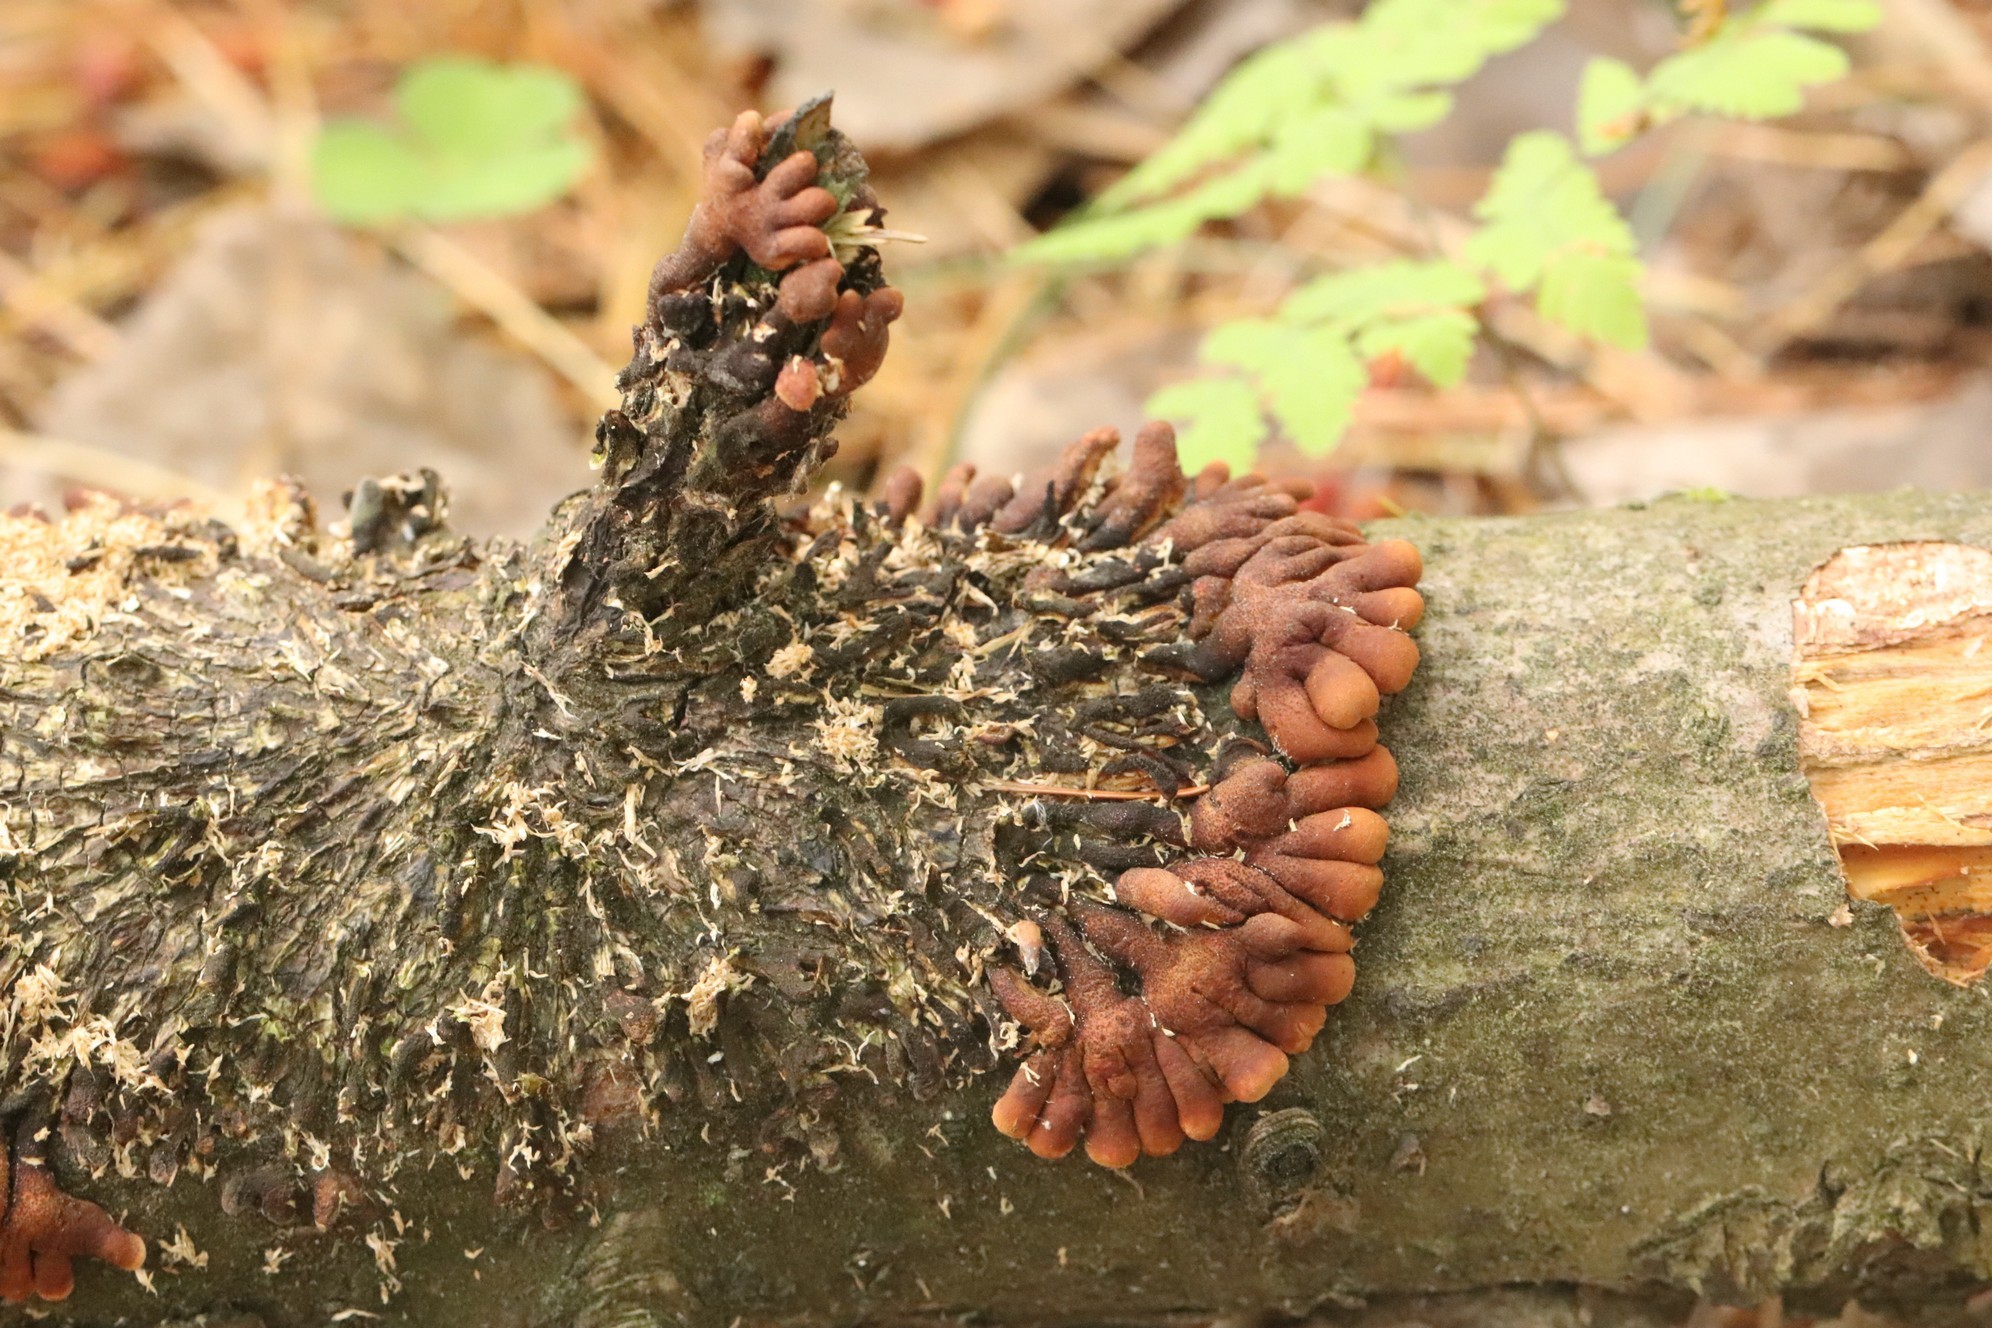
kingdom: Fungi
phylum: Ascomycota
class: Sordariomycetes
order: Hypocreales
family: Hypocreaceae
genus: Hypocreopsis
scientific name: Hypocreopsis lichenoides
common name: Willow gloves
